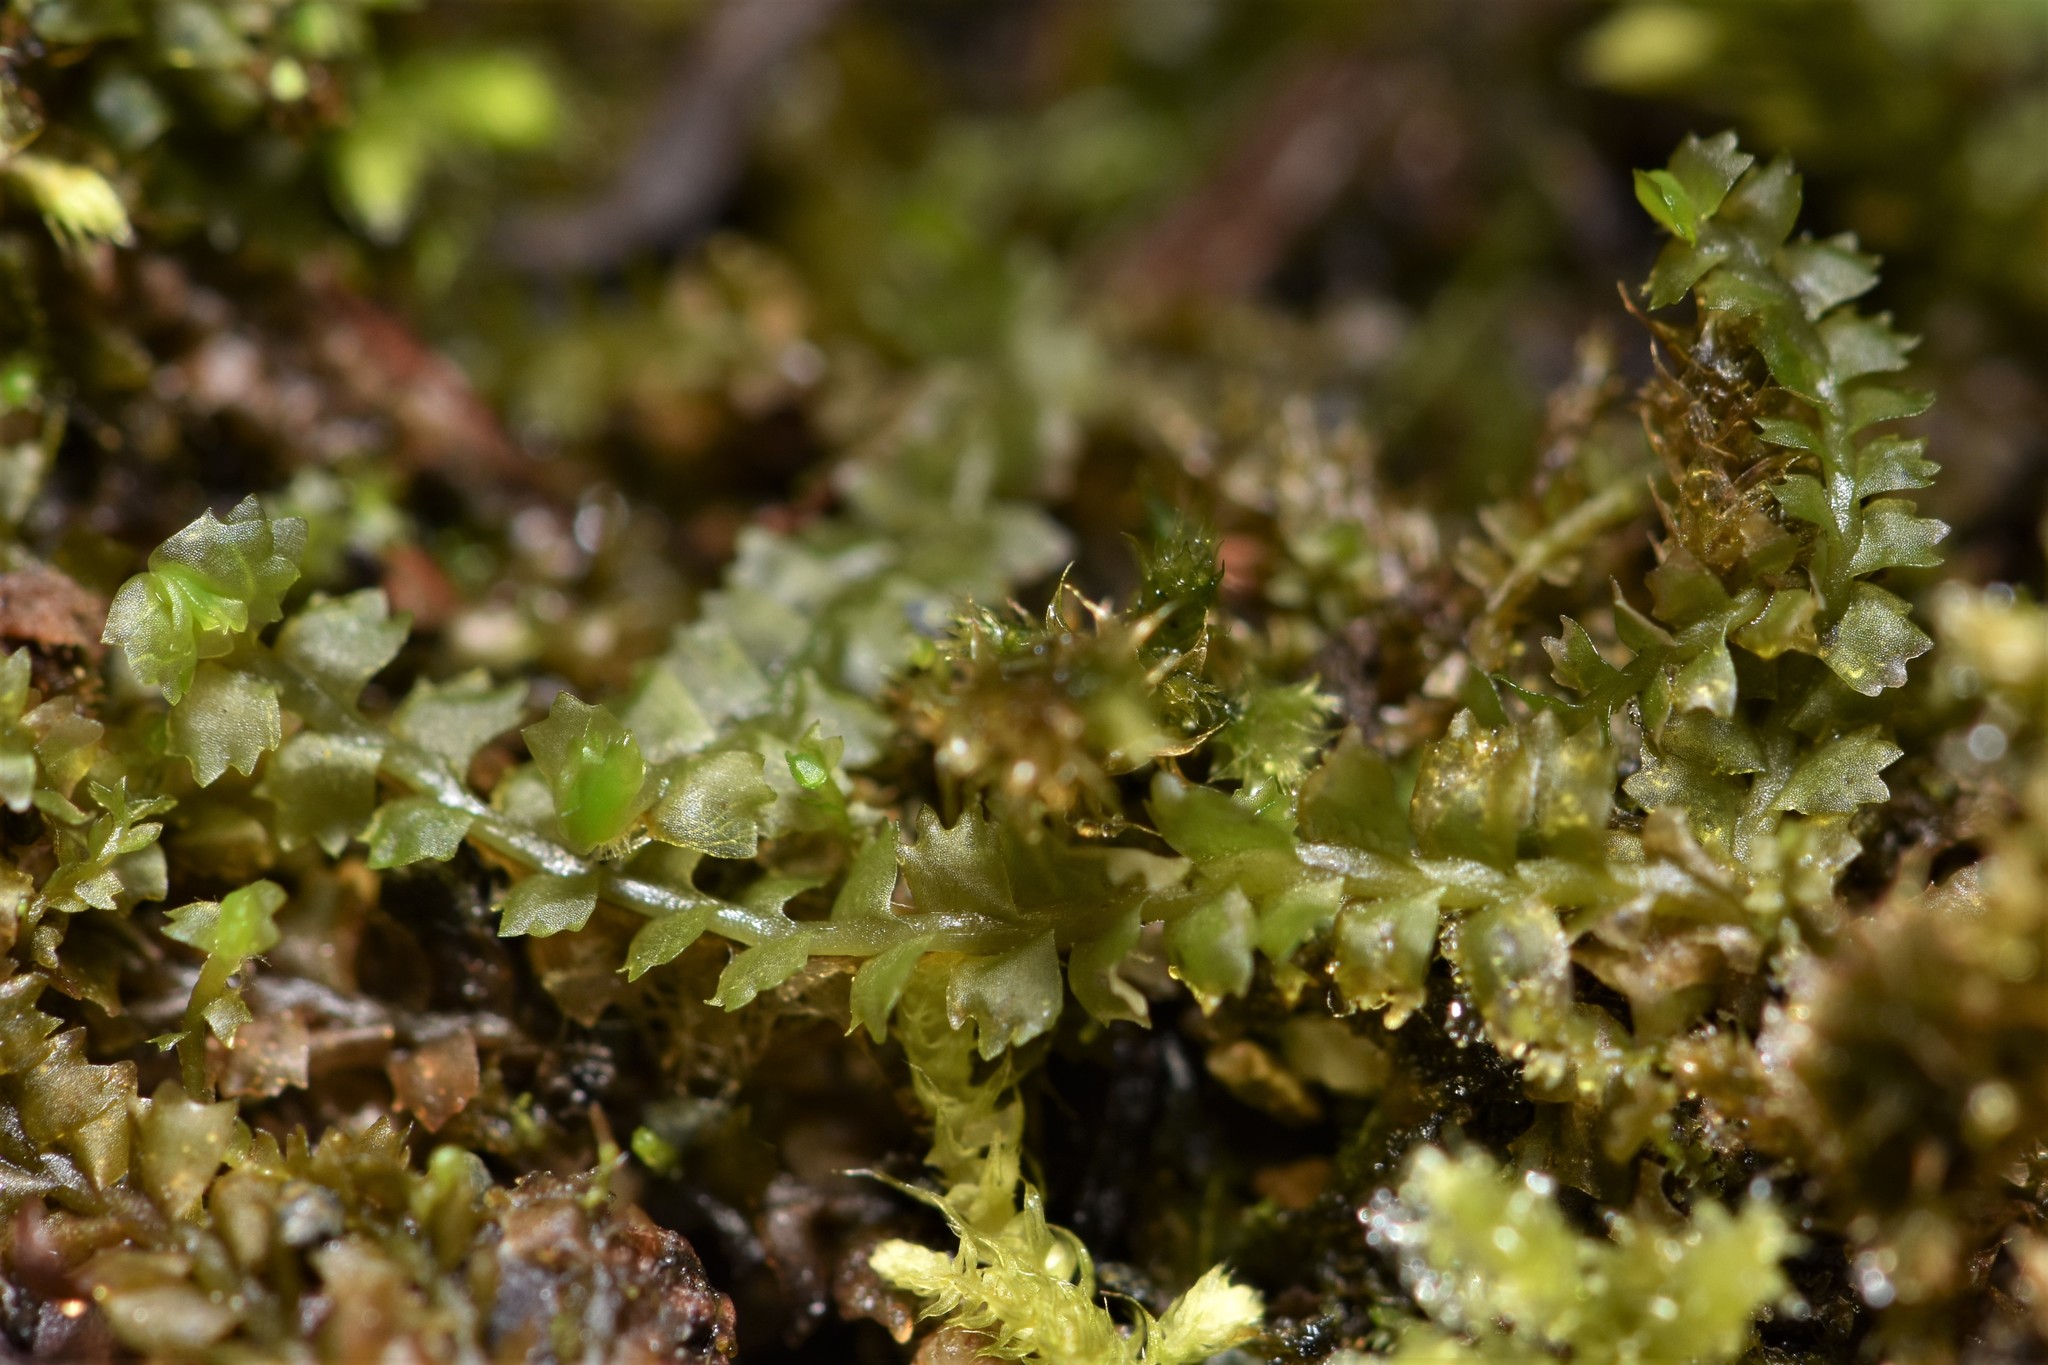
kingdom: Plantae
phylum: Marchantiophyta
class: Jungermanniopsida
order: Jungermanniales
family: Anastrophyllaceae
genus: Barbilophozia
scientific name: Barbilophozia barbata
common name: Bearded pawwort
